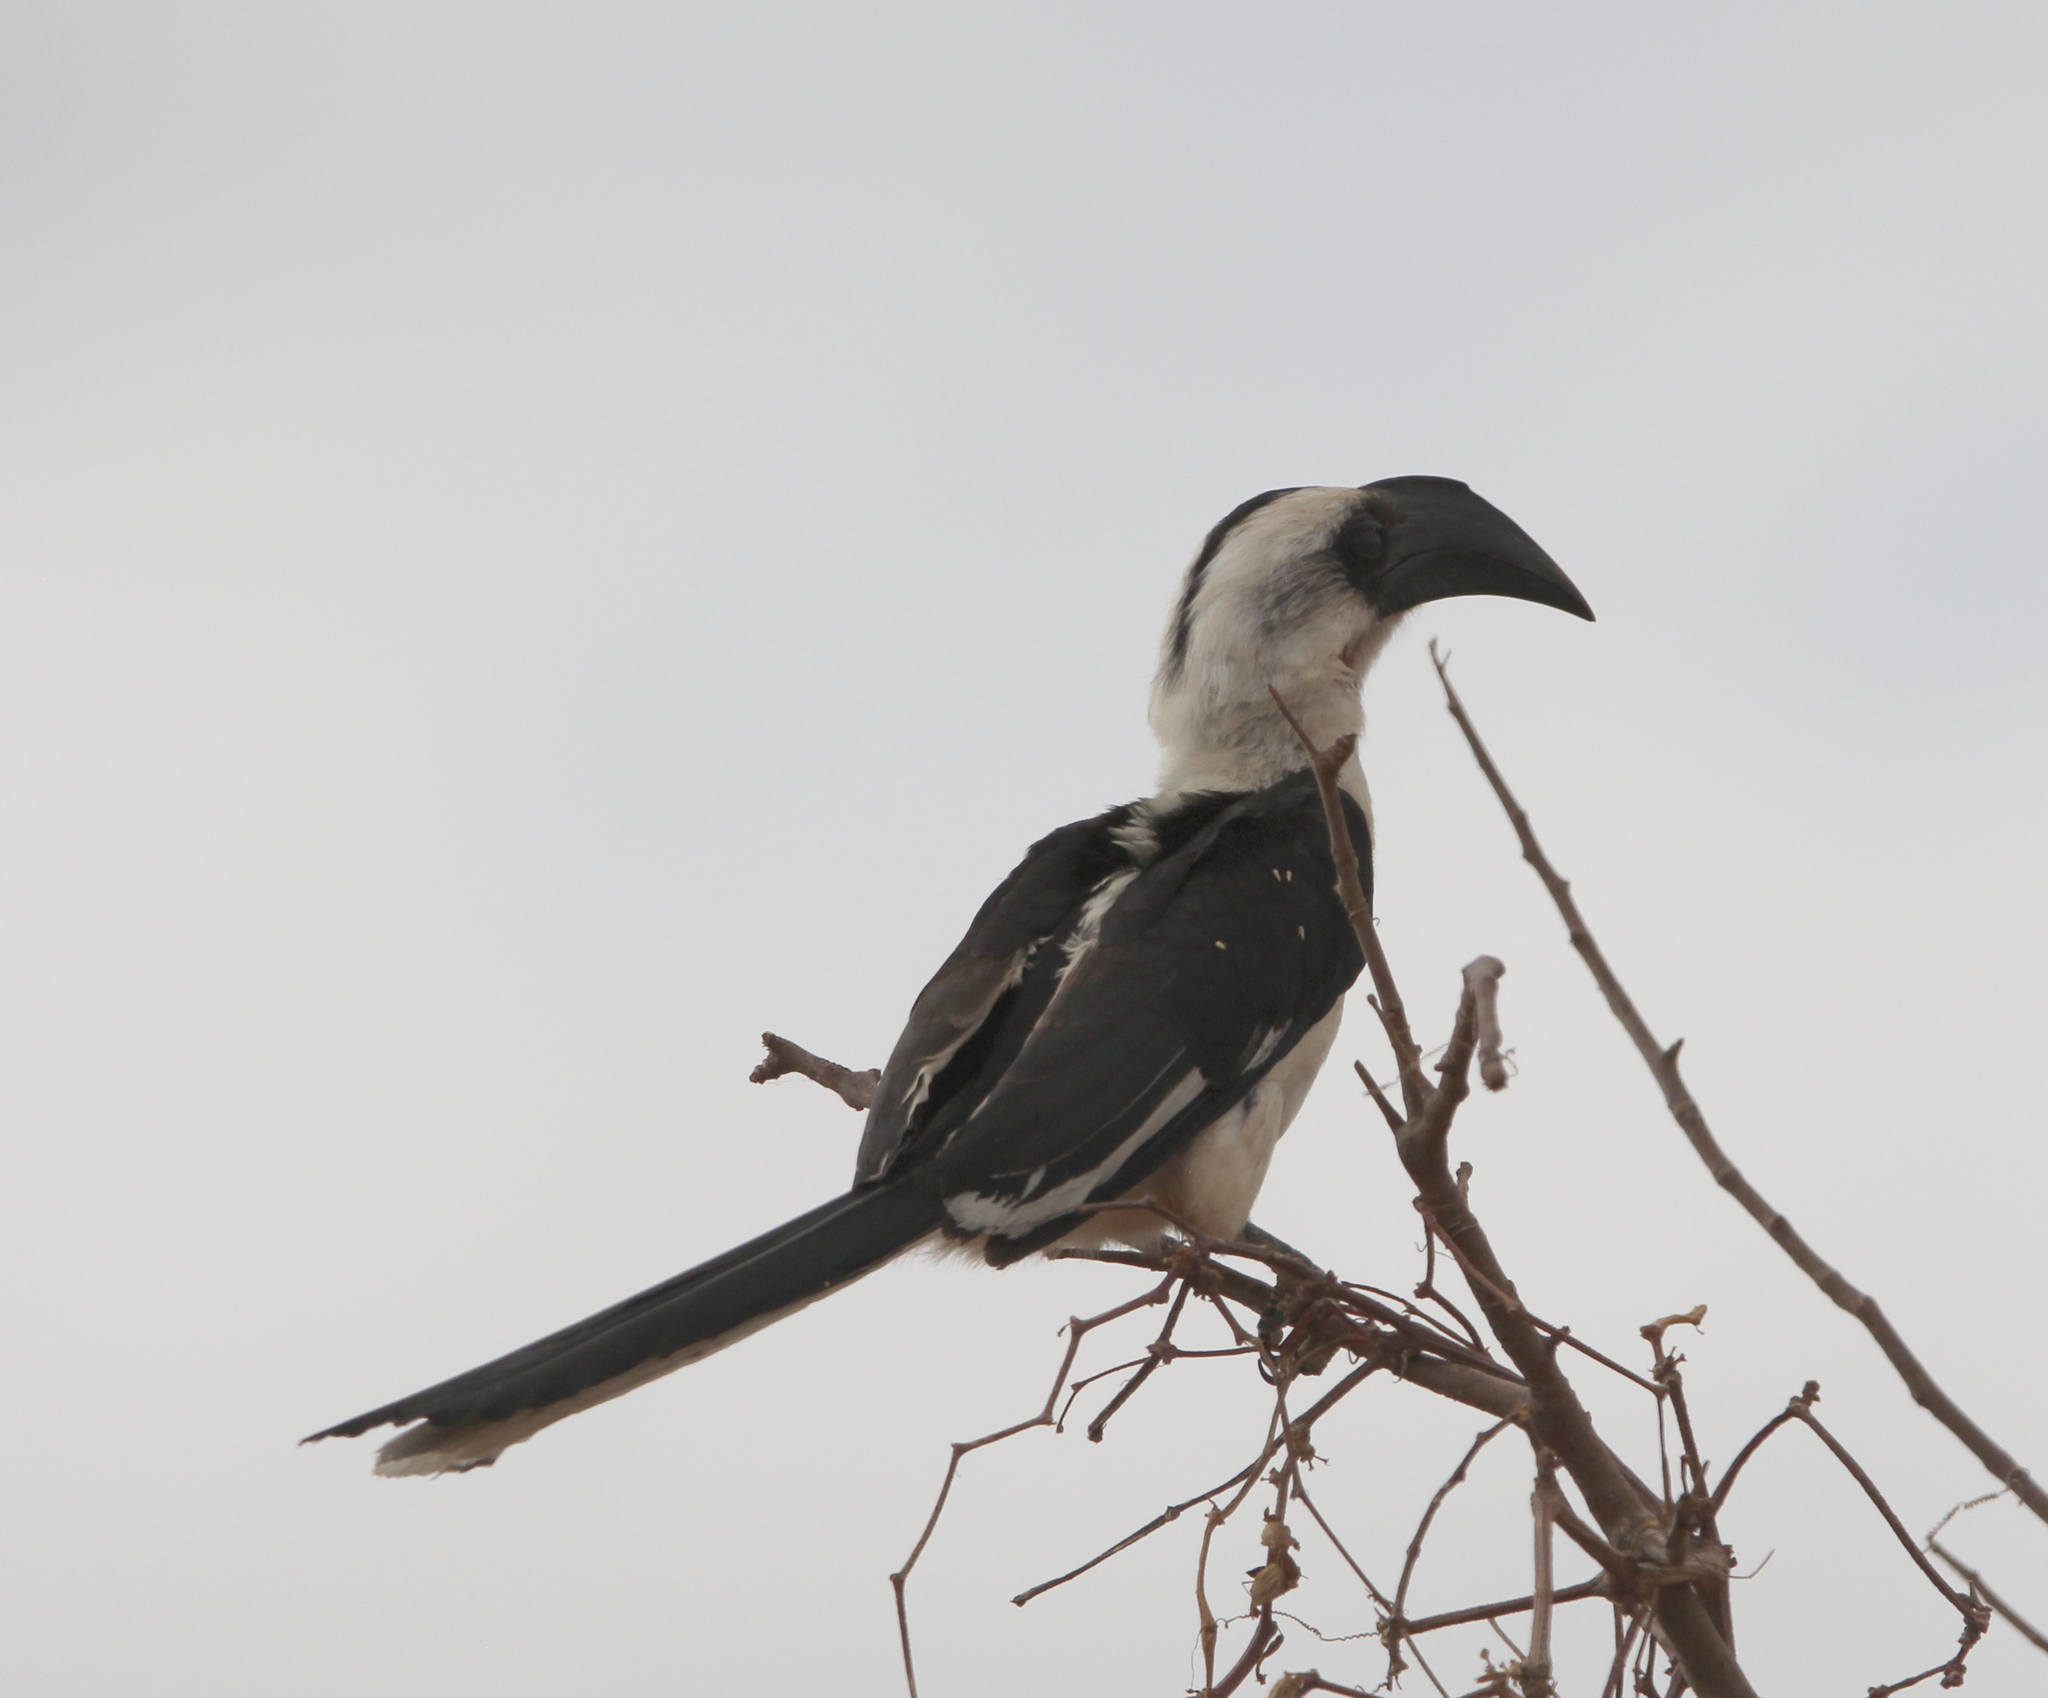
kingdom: Animalia
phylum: Chordata
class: Aves
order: Bucerotiformes
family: Bucerotidae
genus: Tockus
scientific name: Tockus deckeni
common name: Von der decken's hornbill
